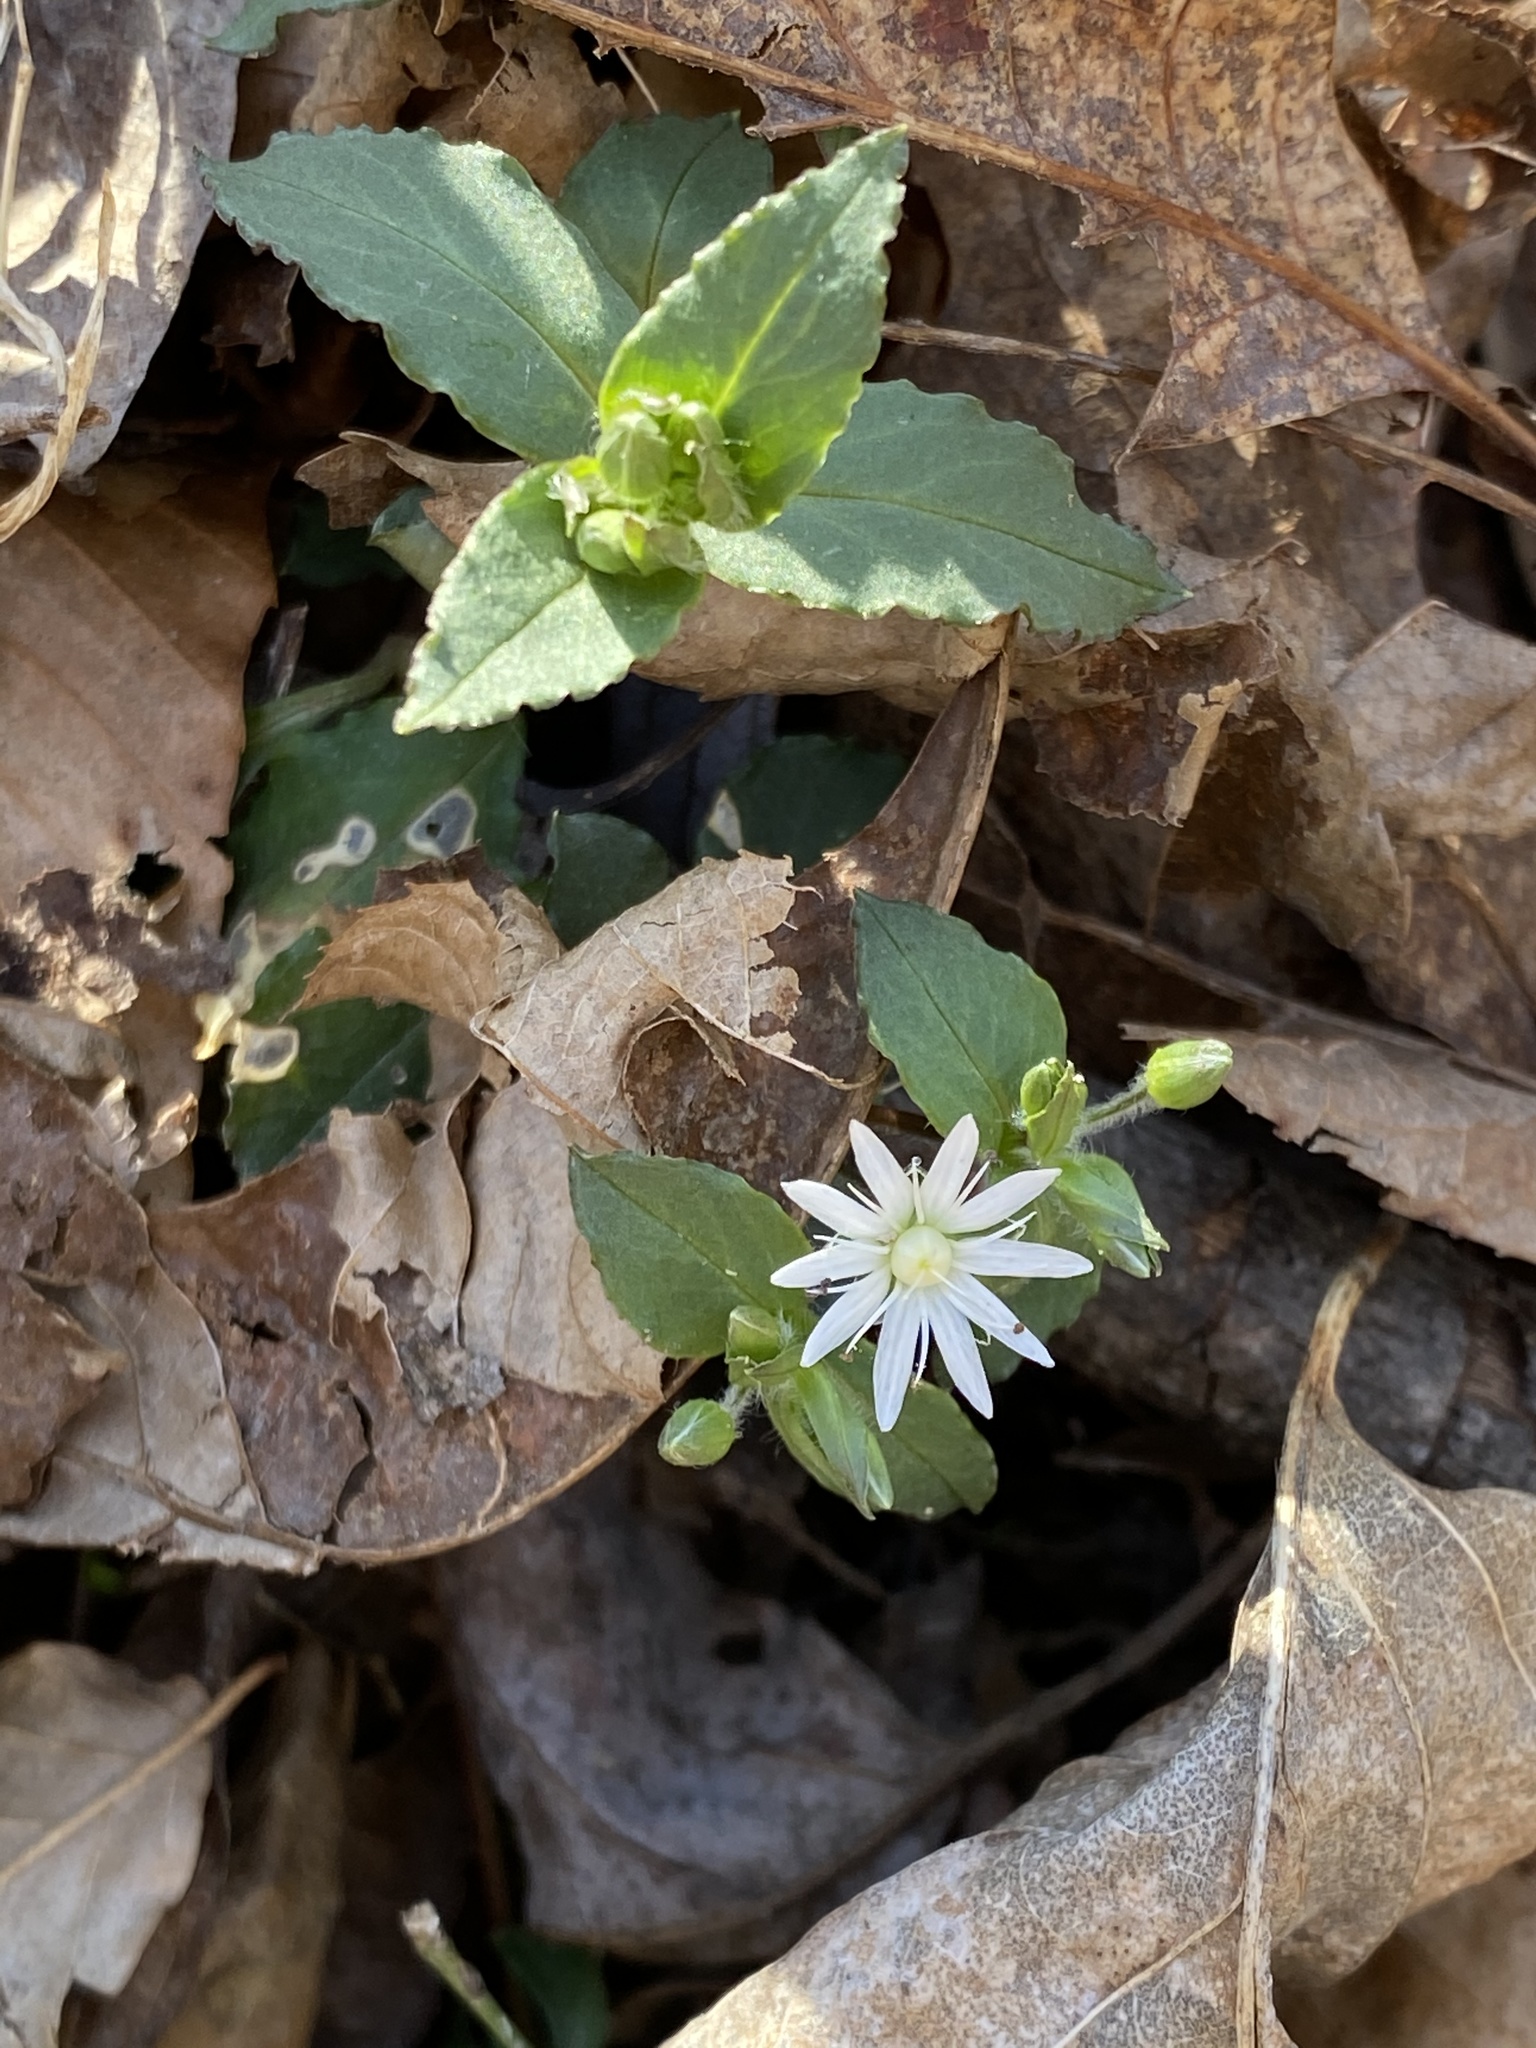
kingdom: Plantae
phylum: Tracheophyta
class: Magnoliopsida
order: Caryophyllales
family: Caryophyllaceae
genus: Stellaria
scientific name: Stellaria pubera
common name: Star chickweed
